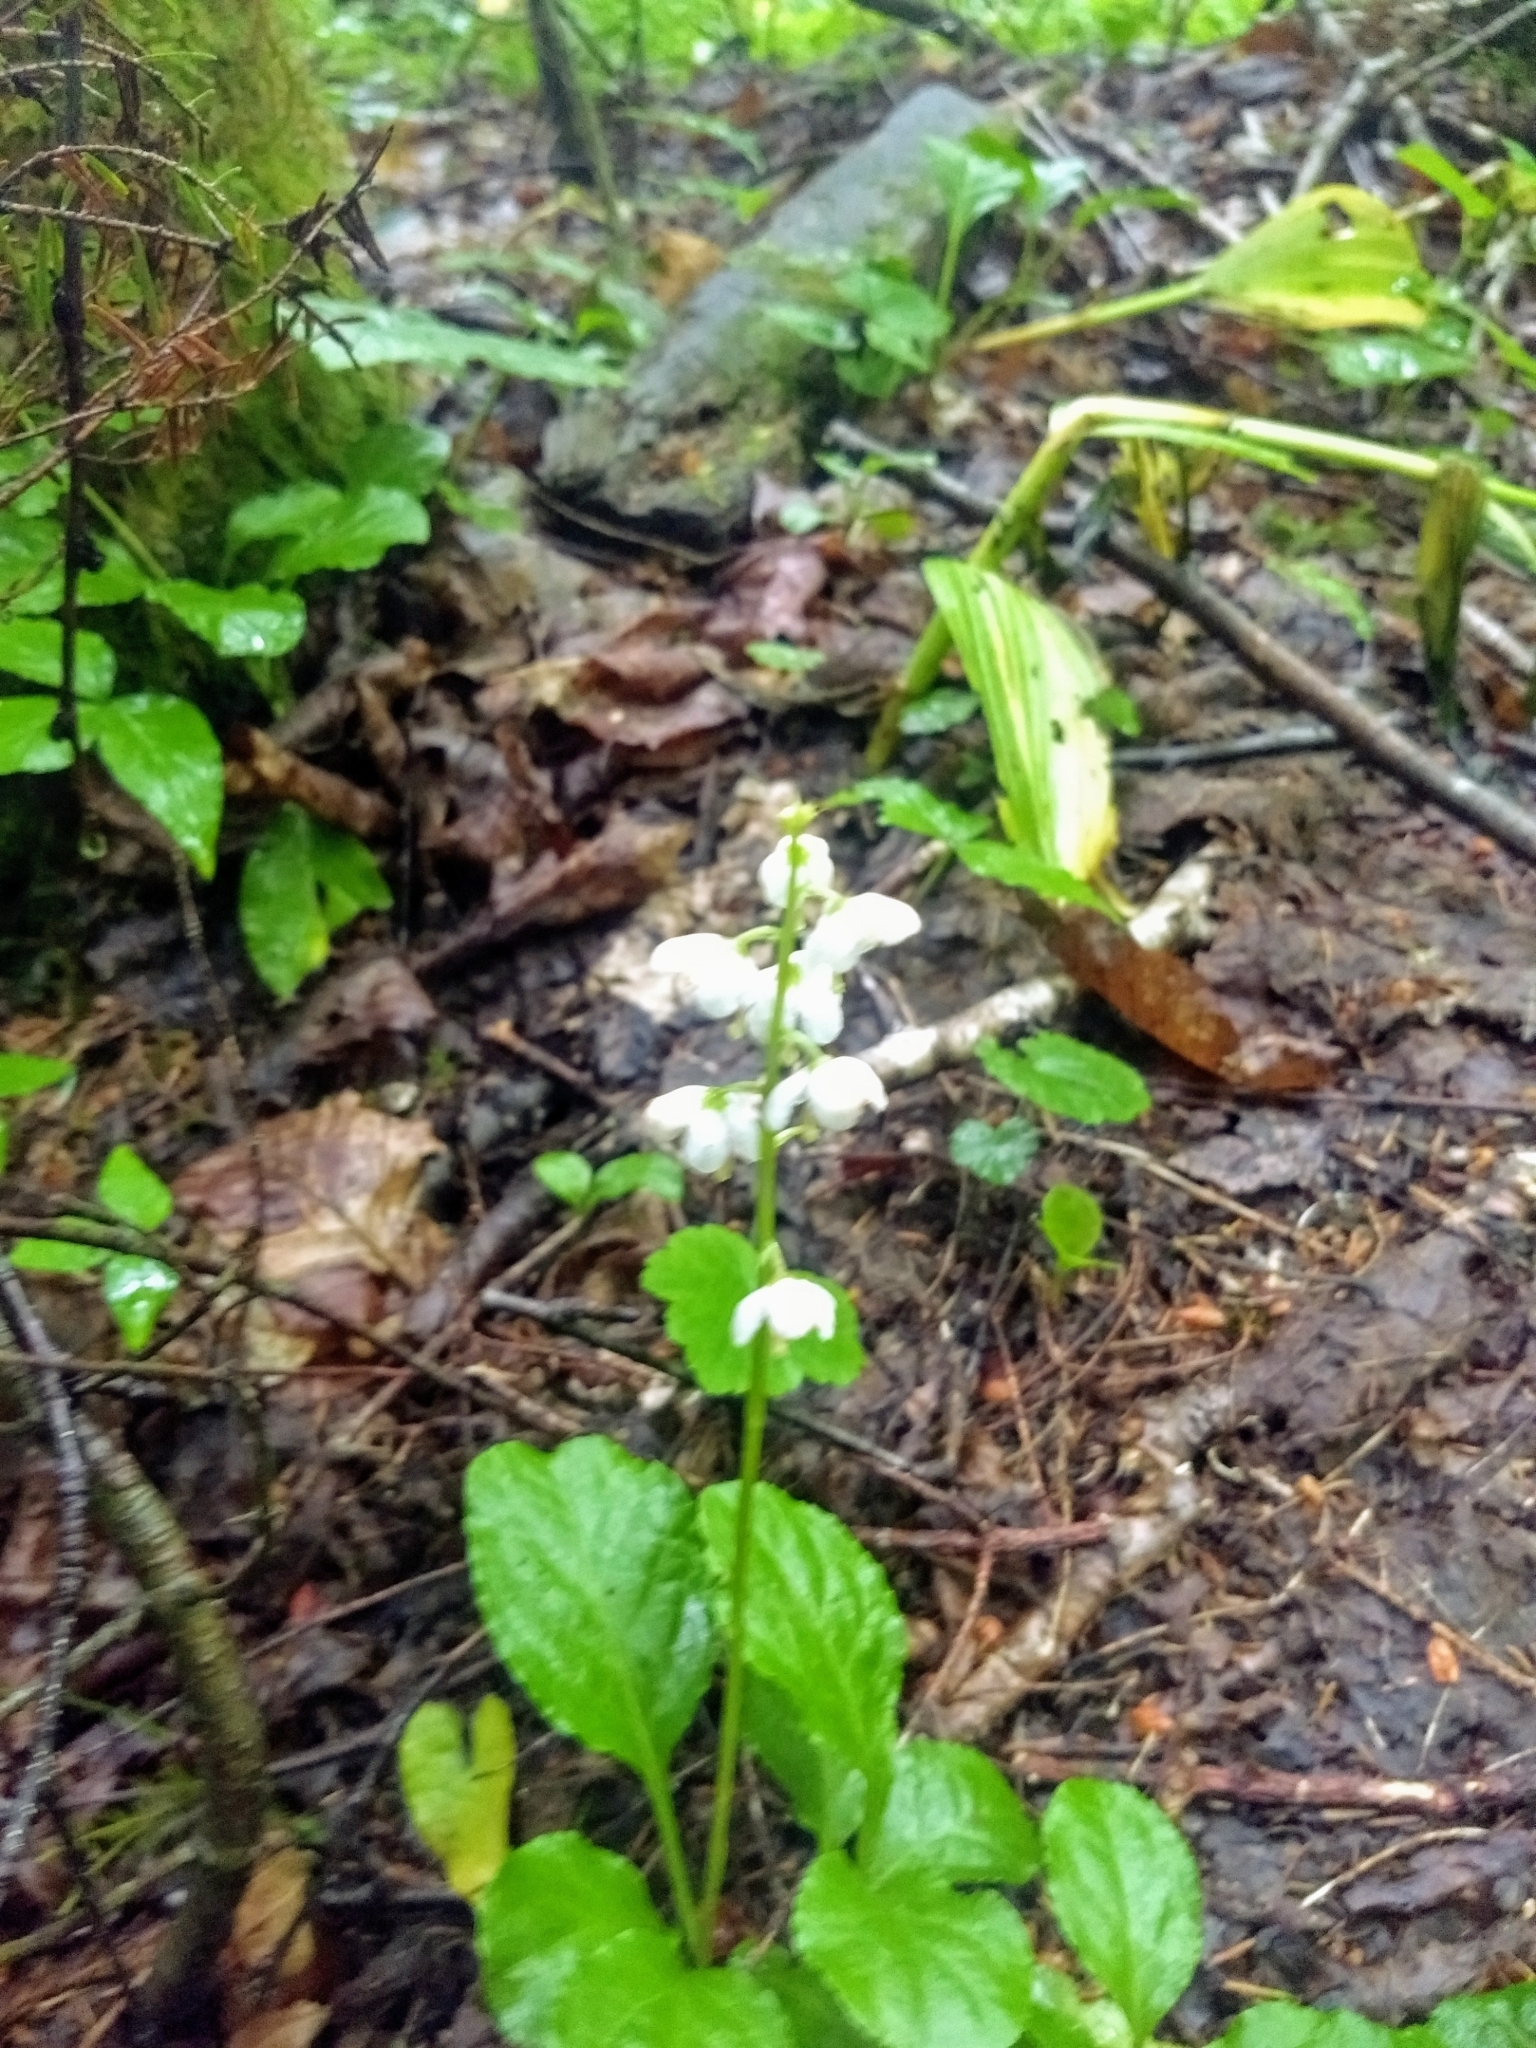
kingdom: Plantae
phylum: Tracheophyta
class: Magnoliopsida
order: Ericales
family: Ericaceae
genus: Pyrola
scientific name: Pyrola elliptica
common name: Shinleaf
